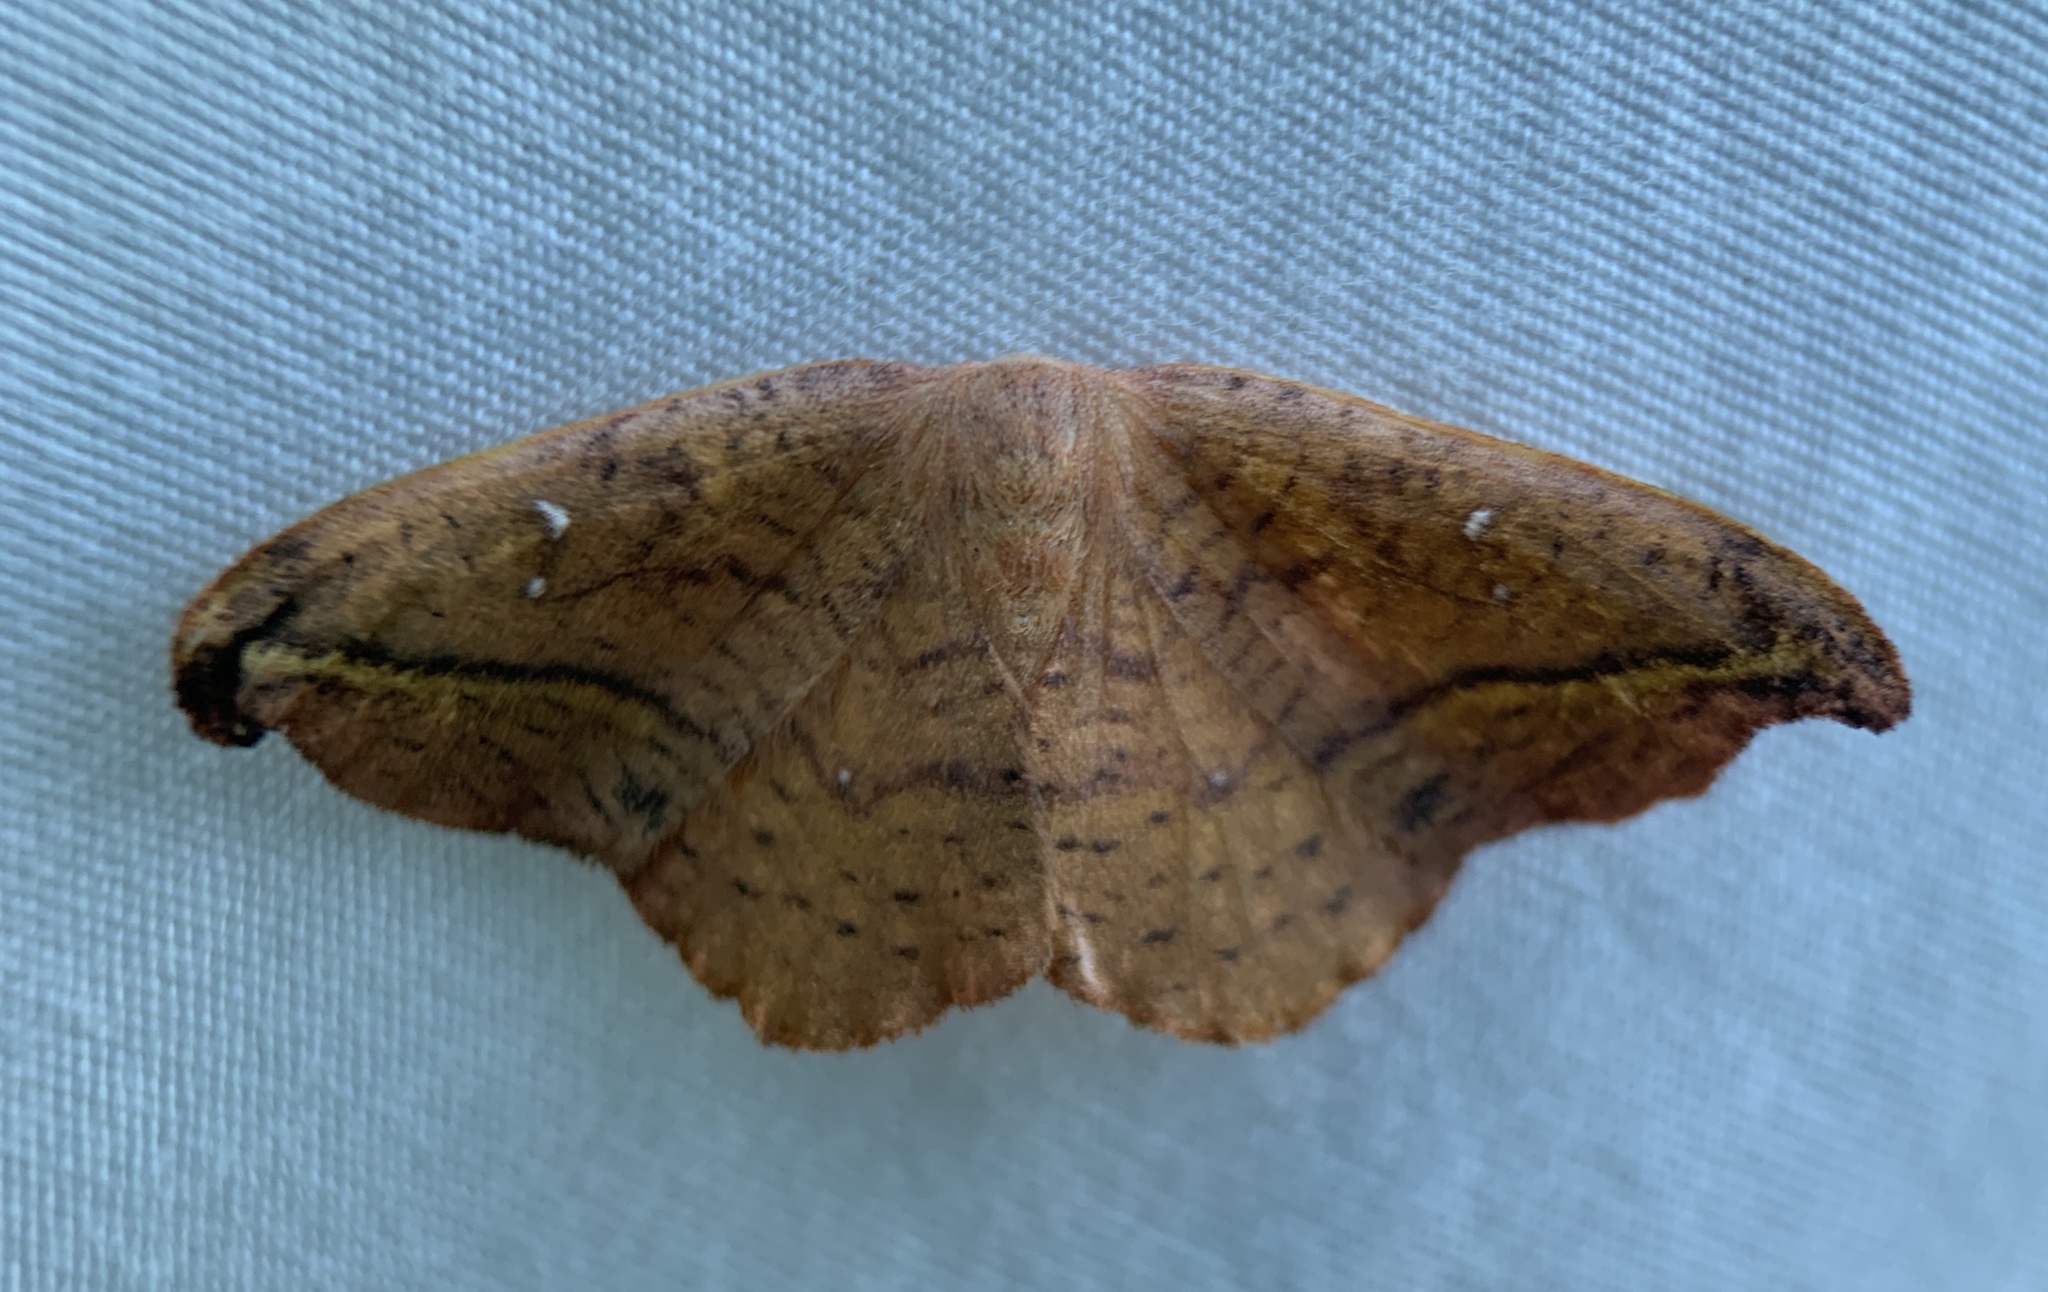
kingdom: Animalia
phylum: Arthropoda
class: Insecta
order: Lepidoptera
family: Drepanidae
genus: Oreta
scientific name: Oreta rosea
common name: Rose hooktip
